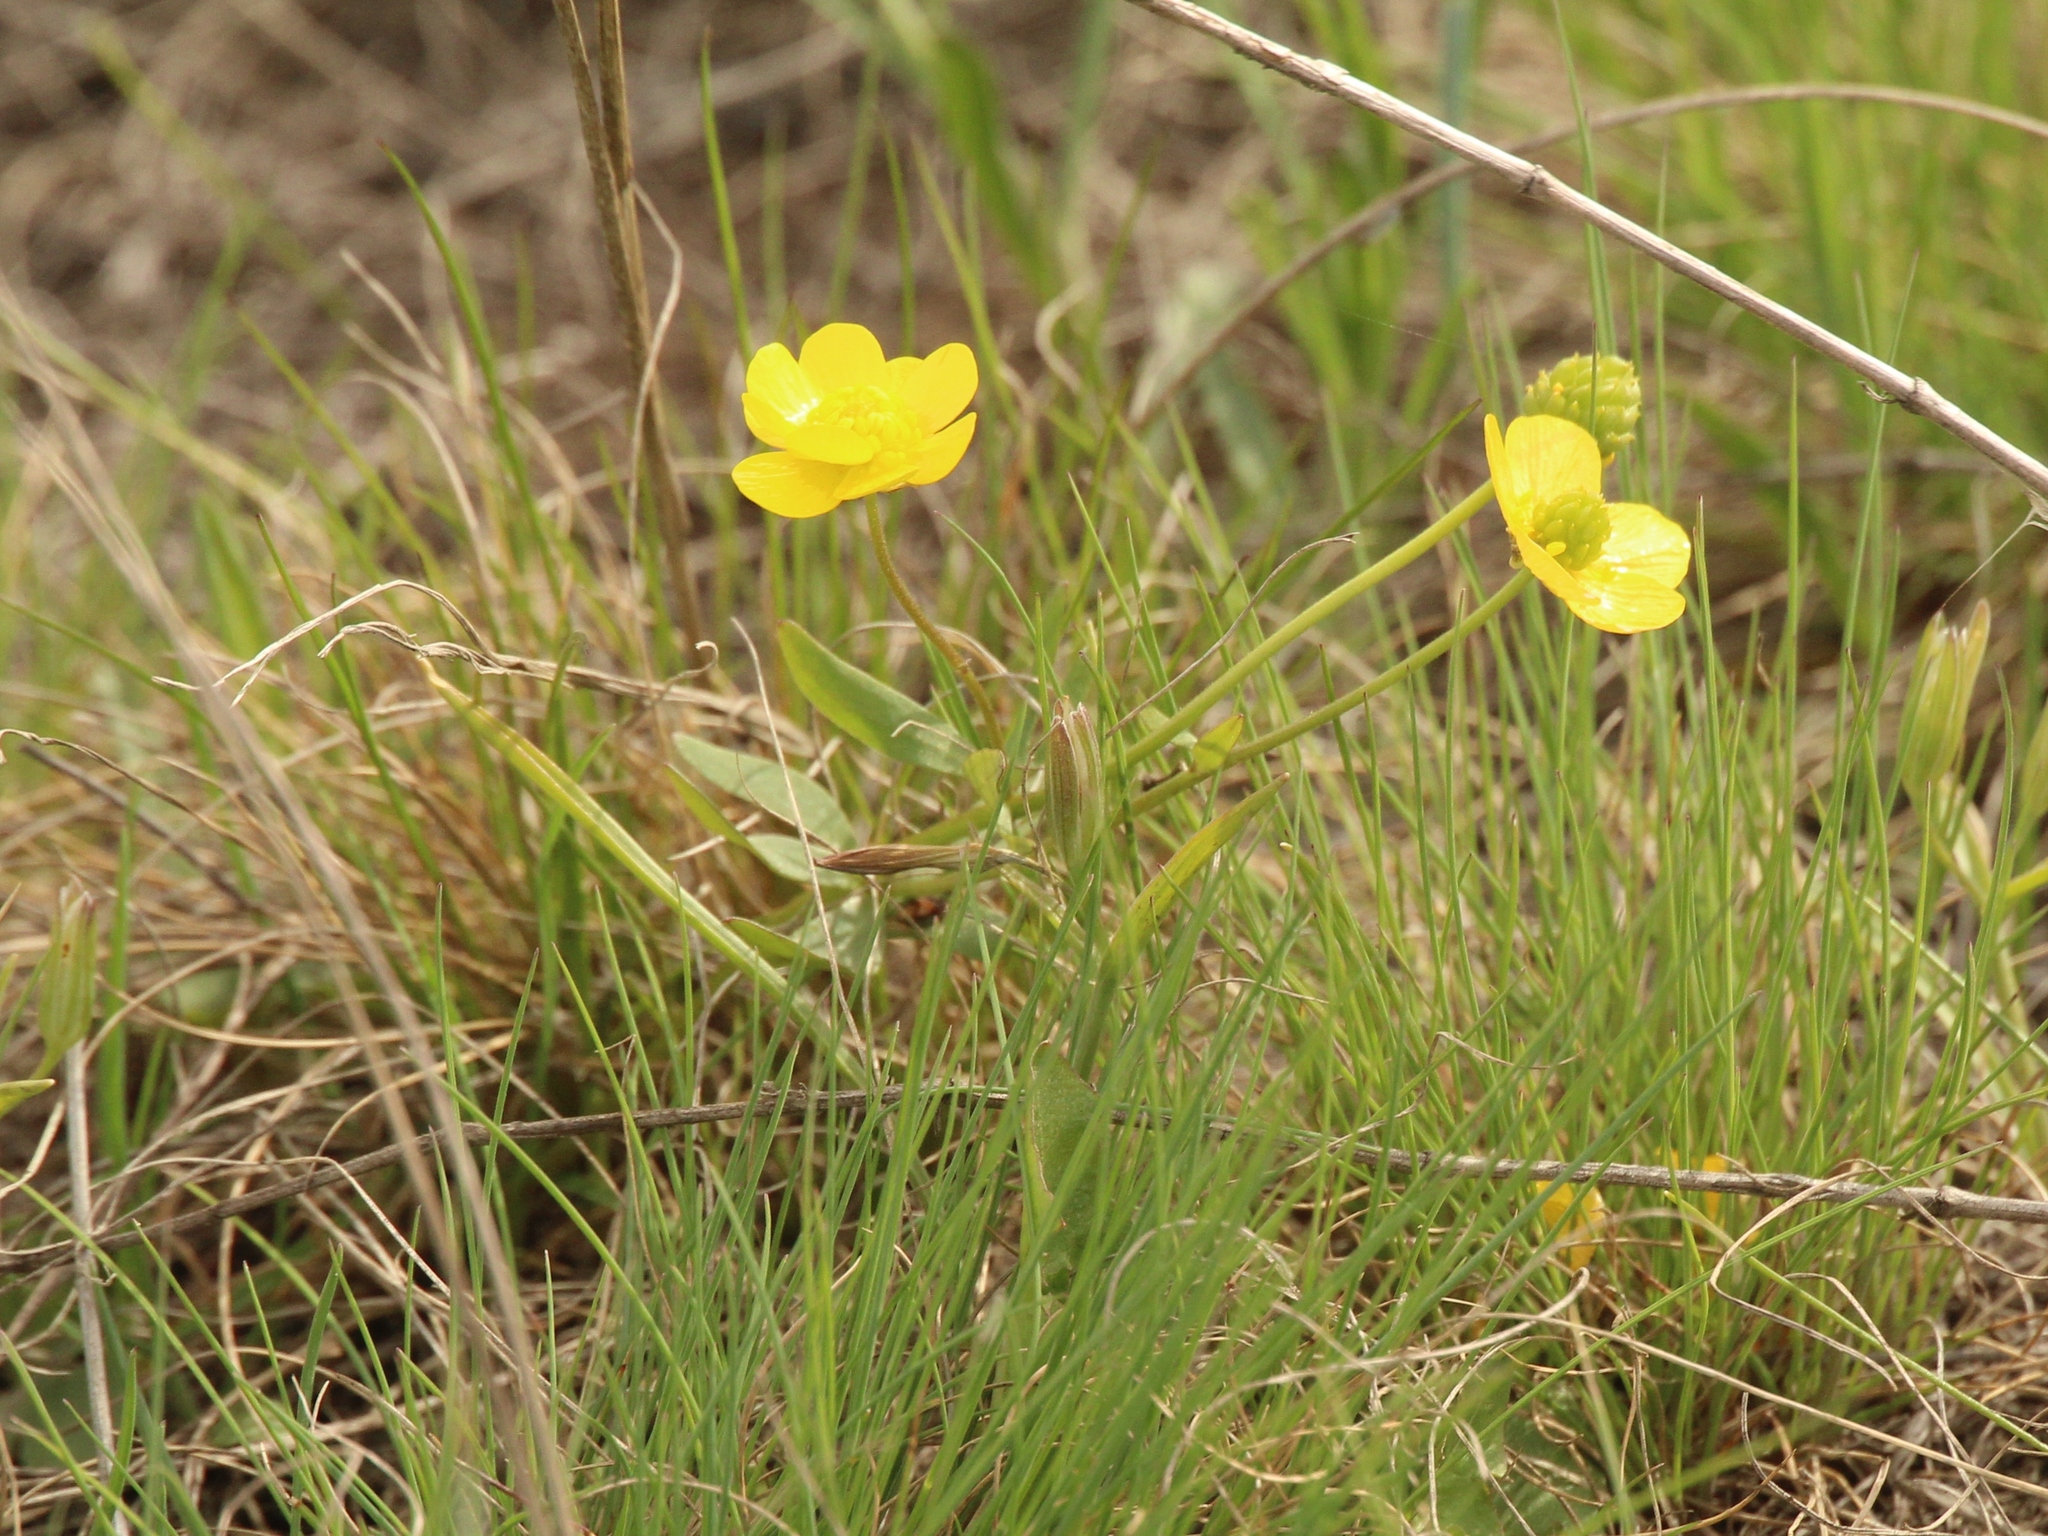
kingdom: Plantae
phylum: Tracheophyta
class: Magnoliopsida
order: Ranunculales
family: Ranunculaceae
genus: Ranunculus
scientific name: Ranunculus polyrhizos
